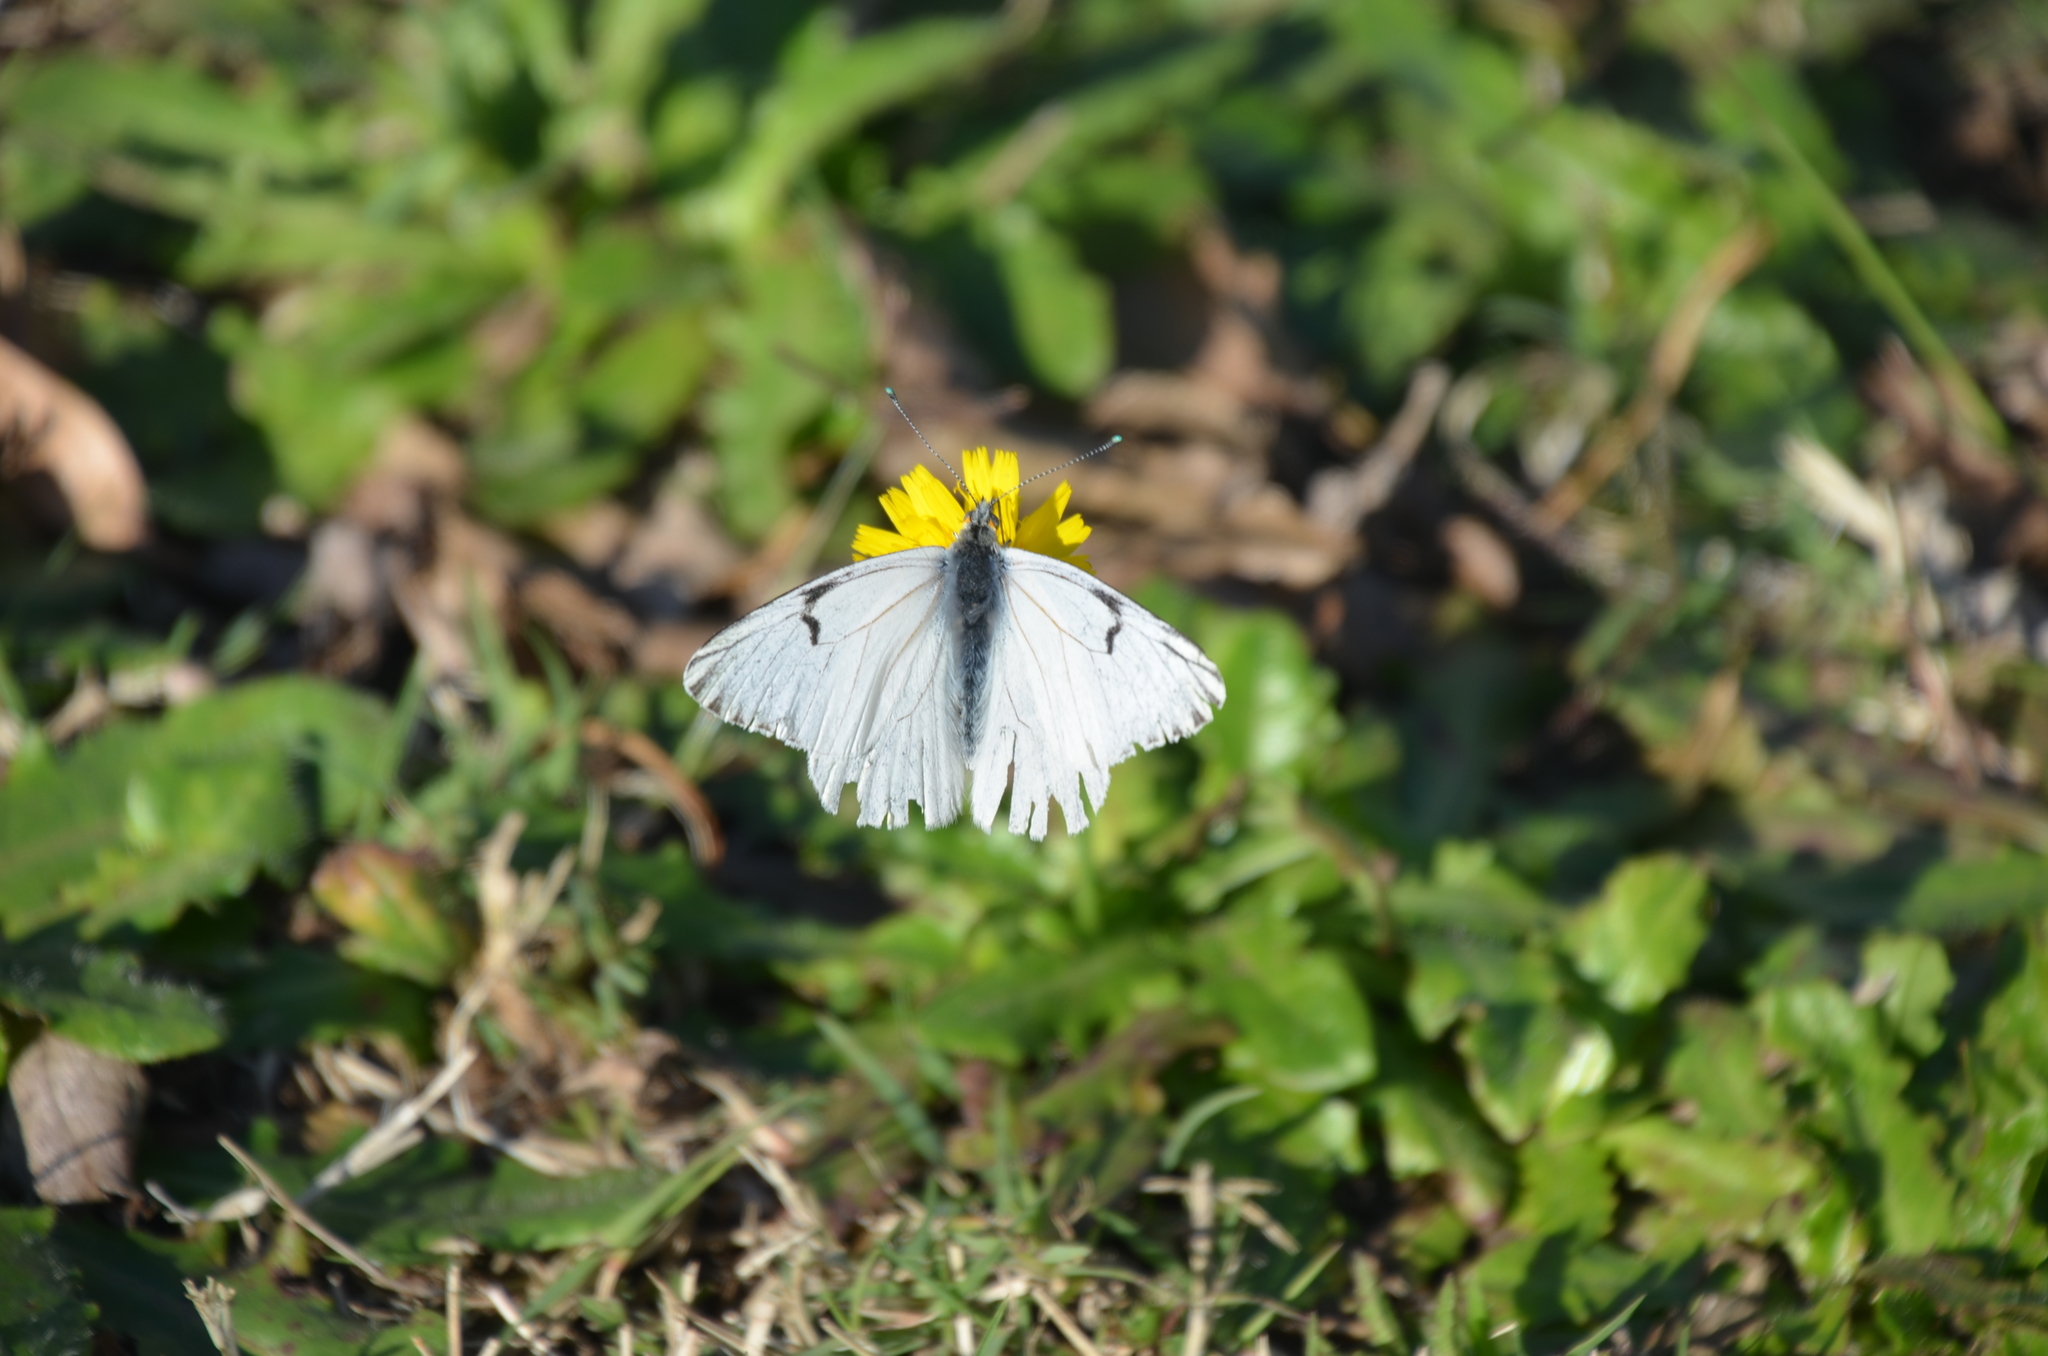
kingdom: Animalia
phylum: Arthropoda
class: Insecta
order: Lepidoptera
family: Pieridae
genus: Tatochila
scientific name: Tatochila mercedis
